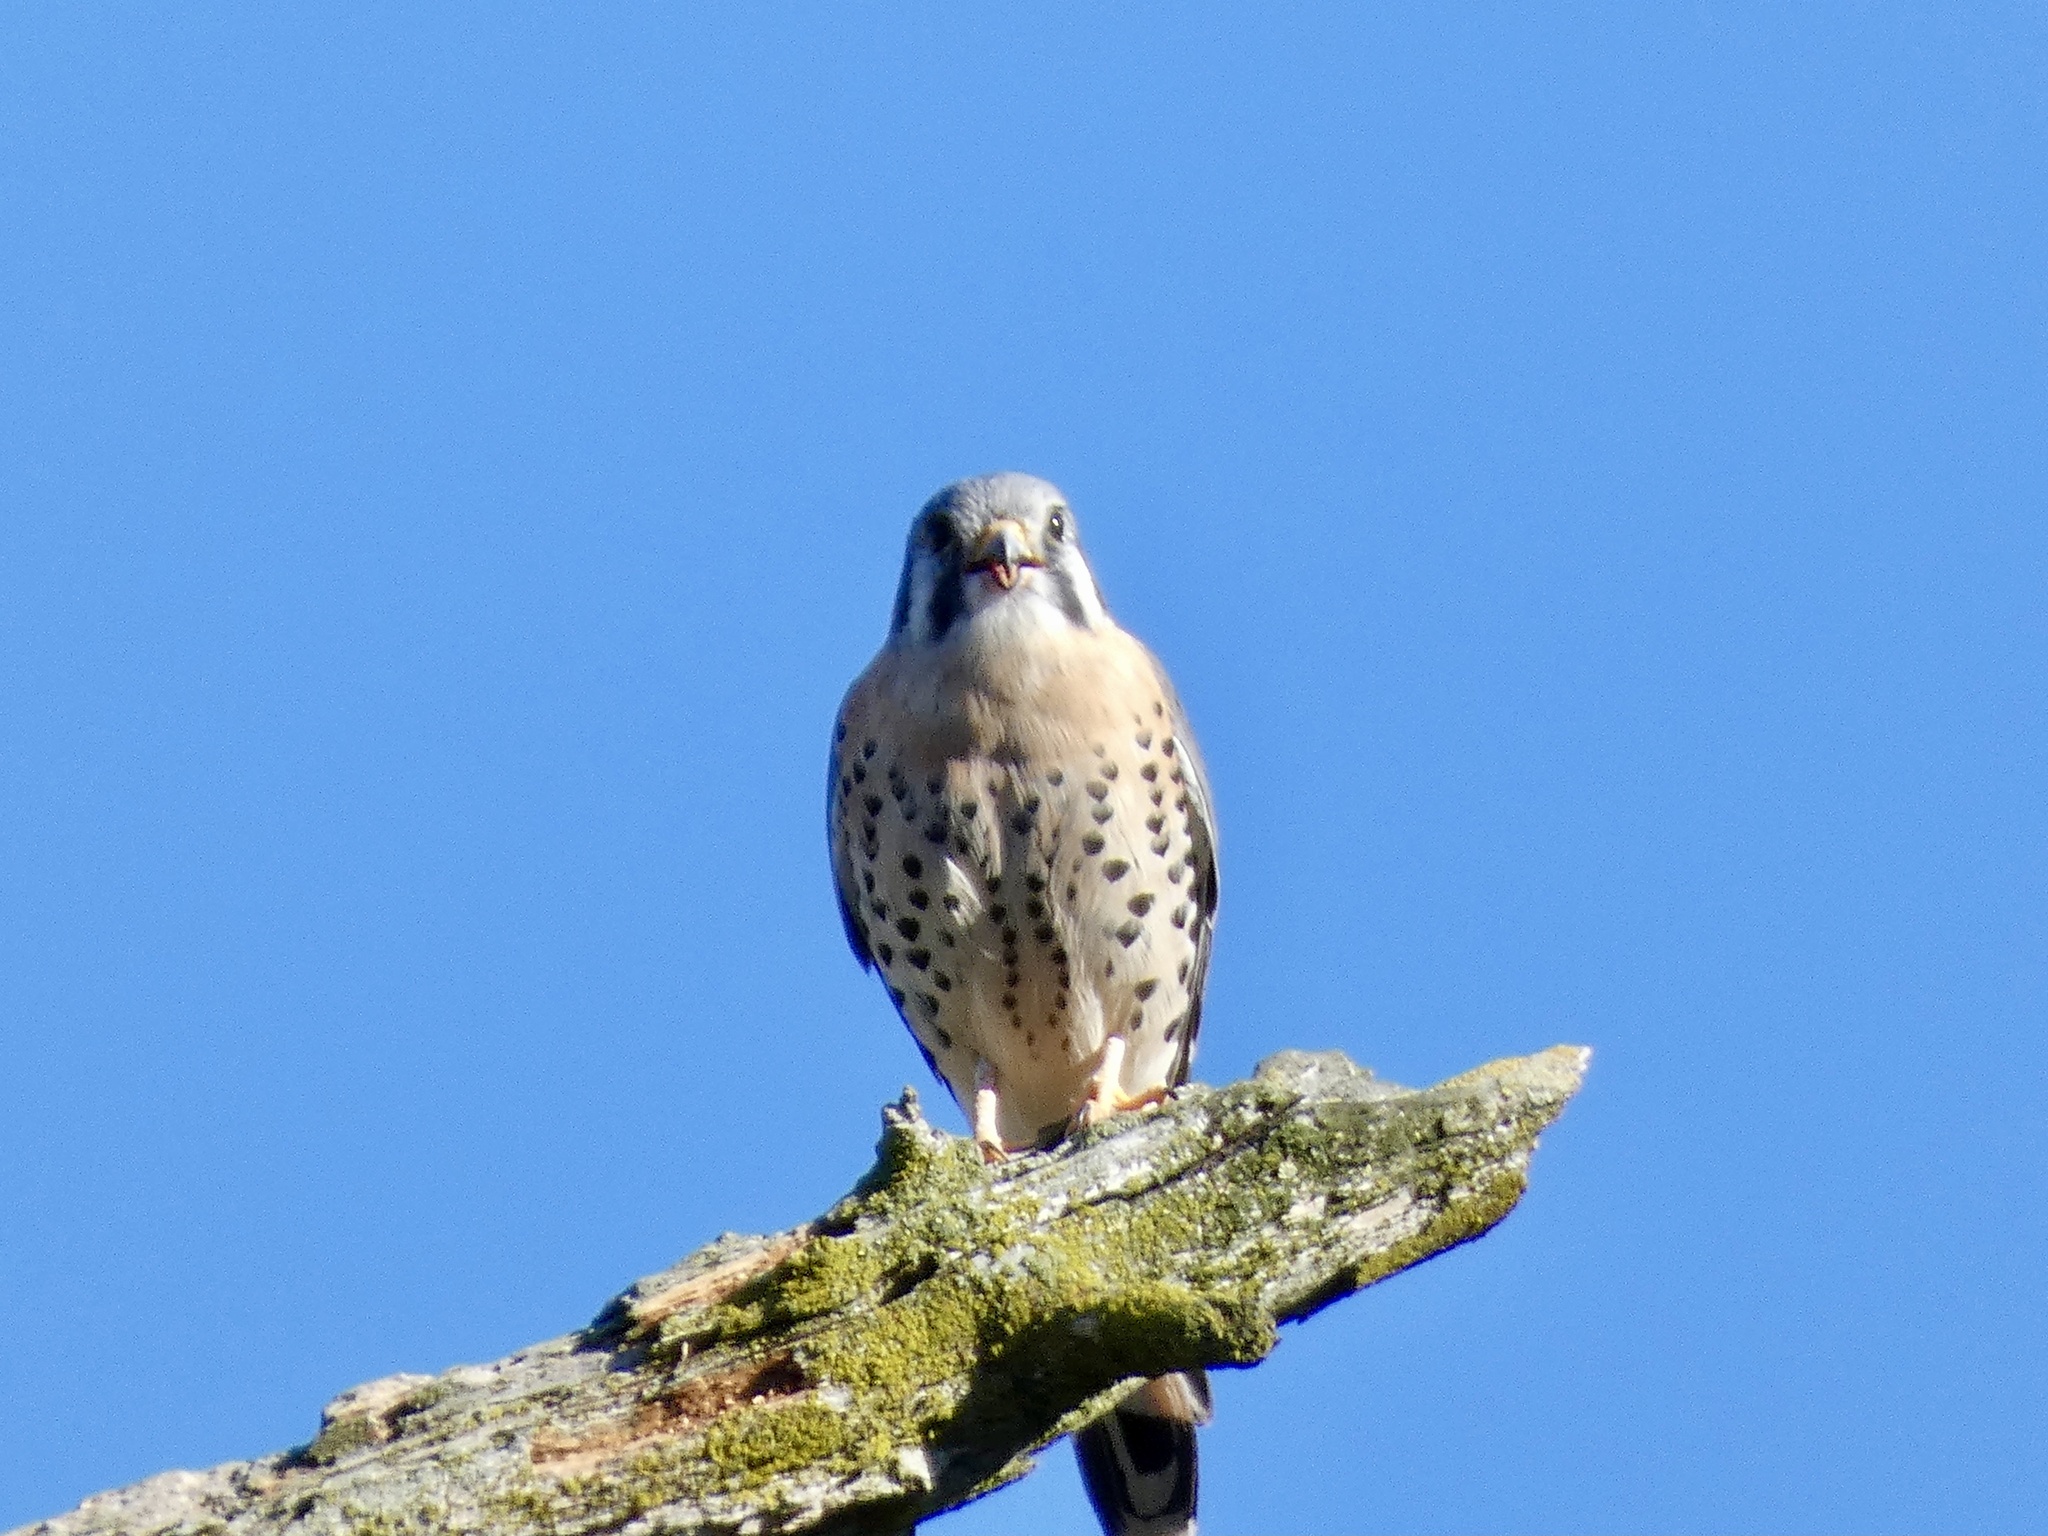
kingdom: Animalia
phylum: Chordata
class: Aves
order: Falconiformes
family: Falconidae
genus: Falco
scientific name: Falco sparverius
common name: American kestrel
